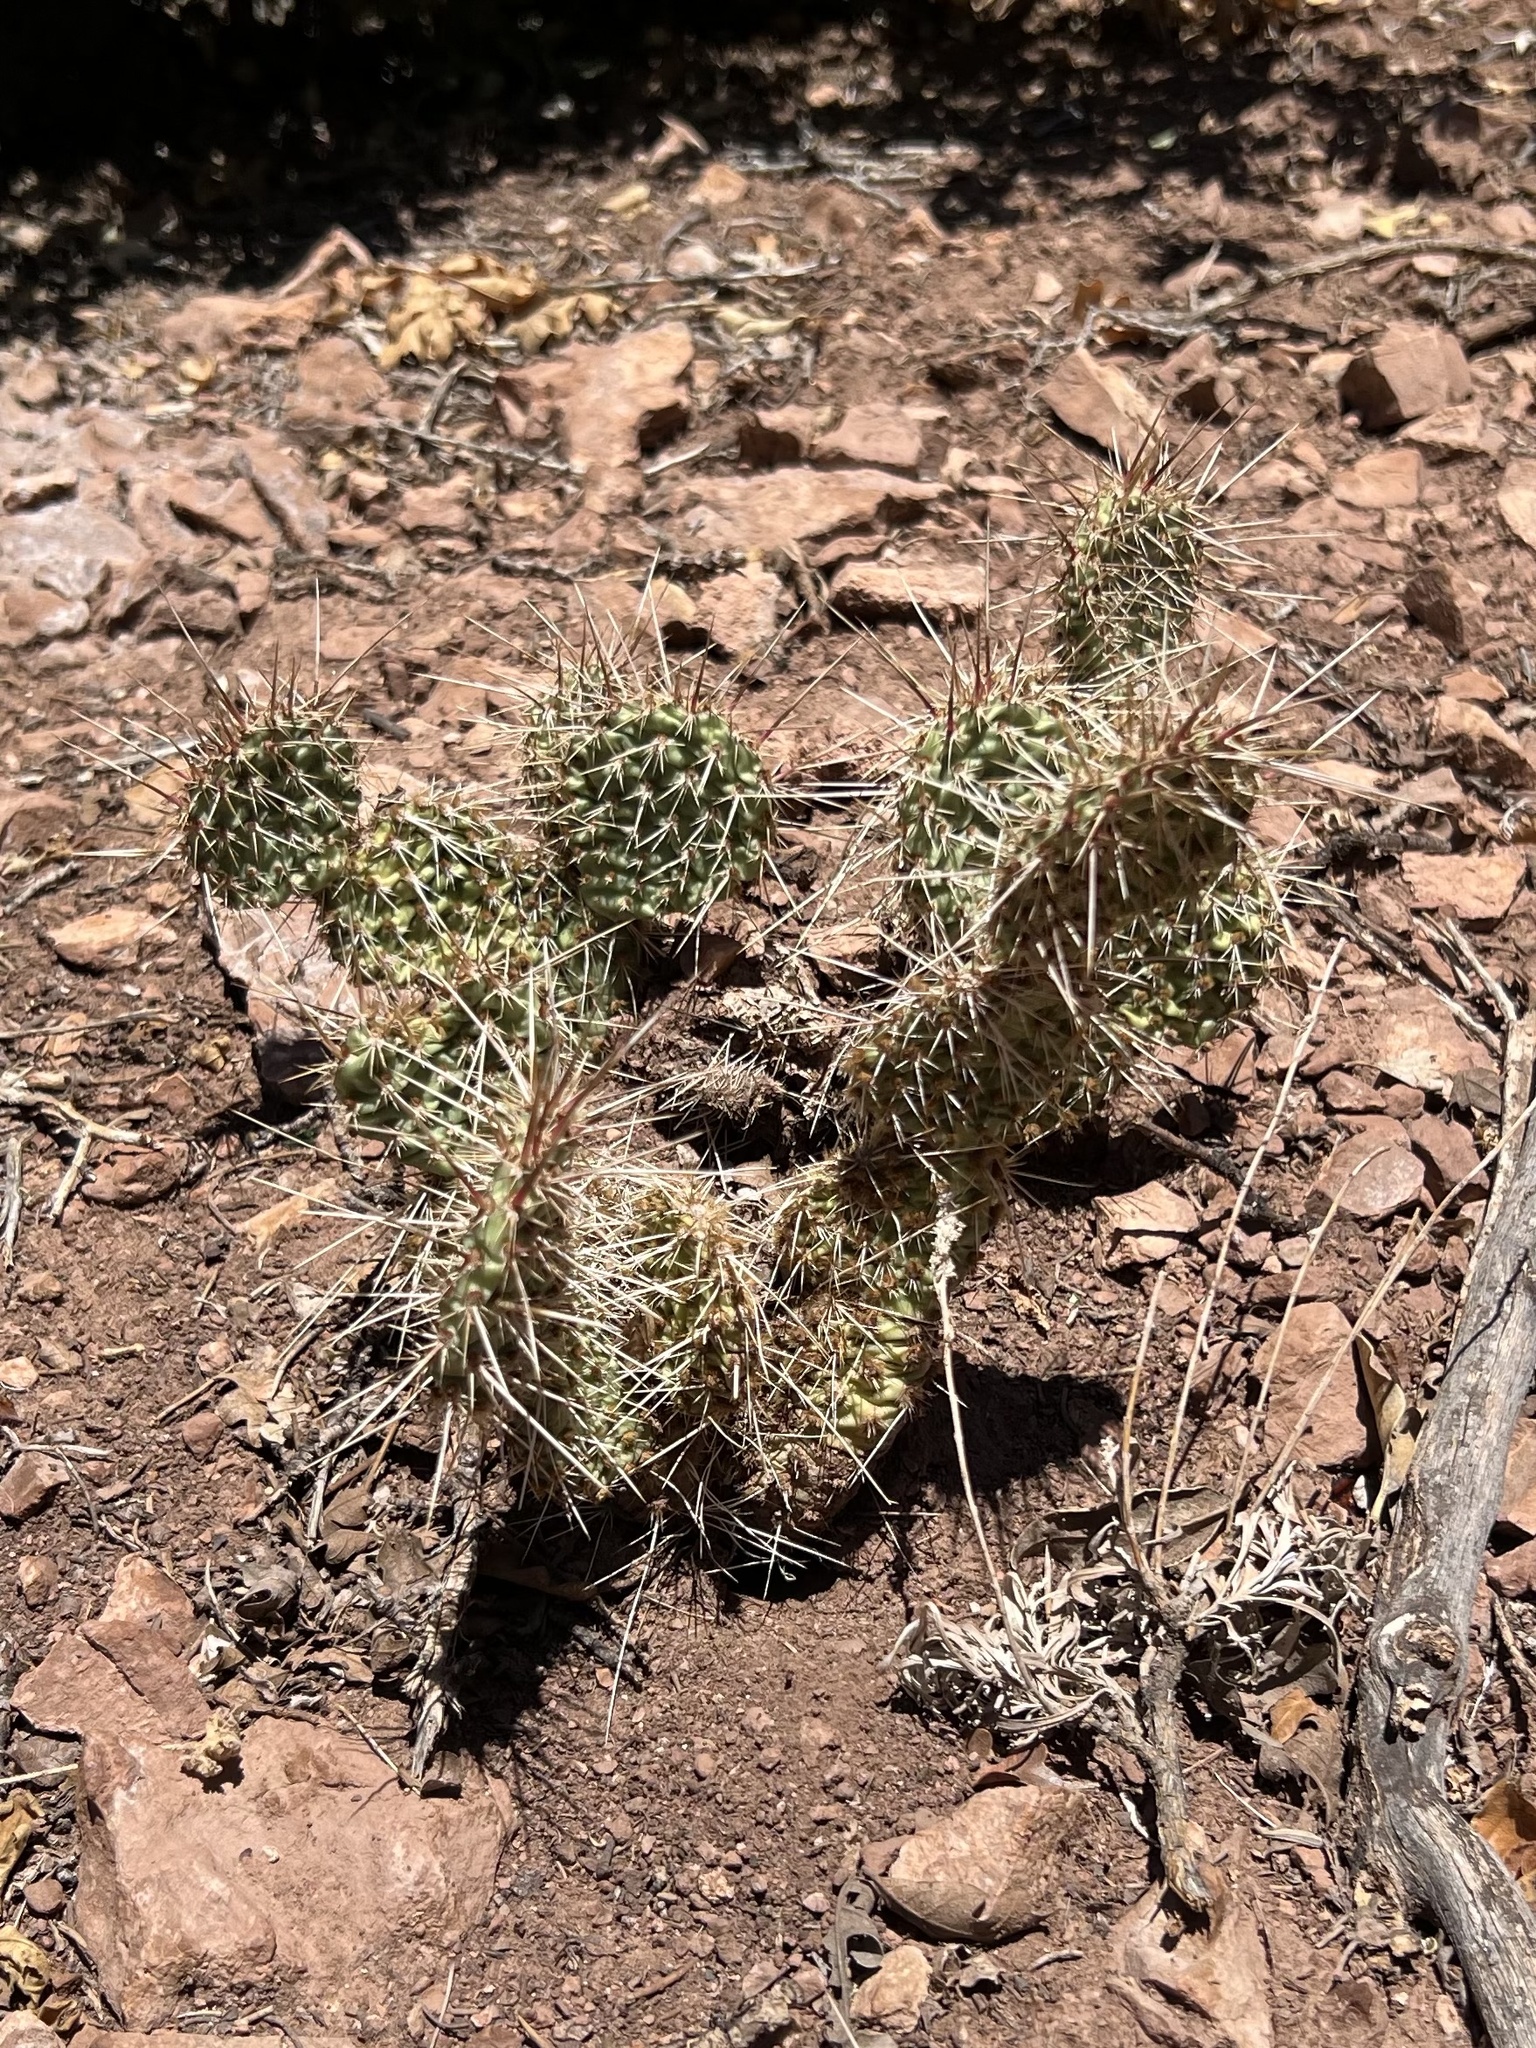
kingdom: Plantae
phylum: Tracheophyta
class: Magnoliopsida
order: Caryophyllales
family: Cactaceae
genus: Opuntia
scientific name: Opuntia polyacantha
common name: Plains prickly-pear
